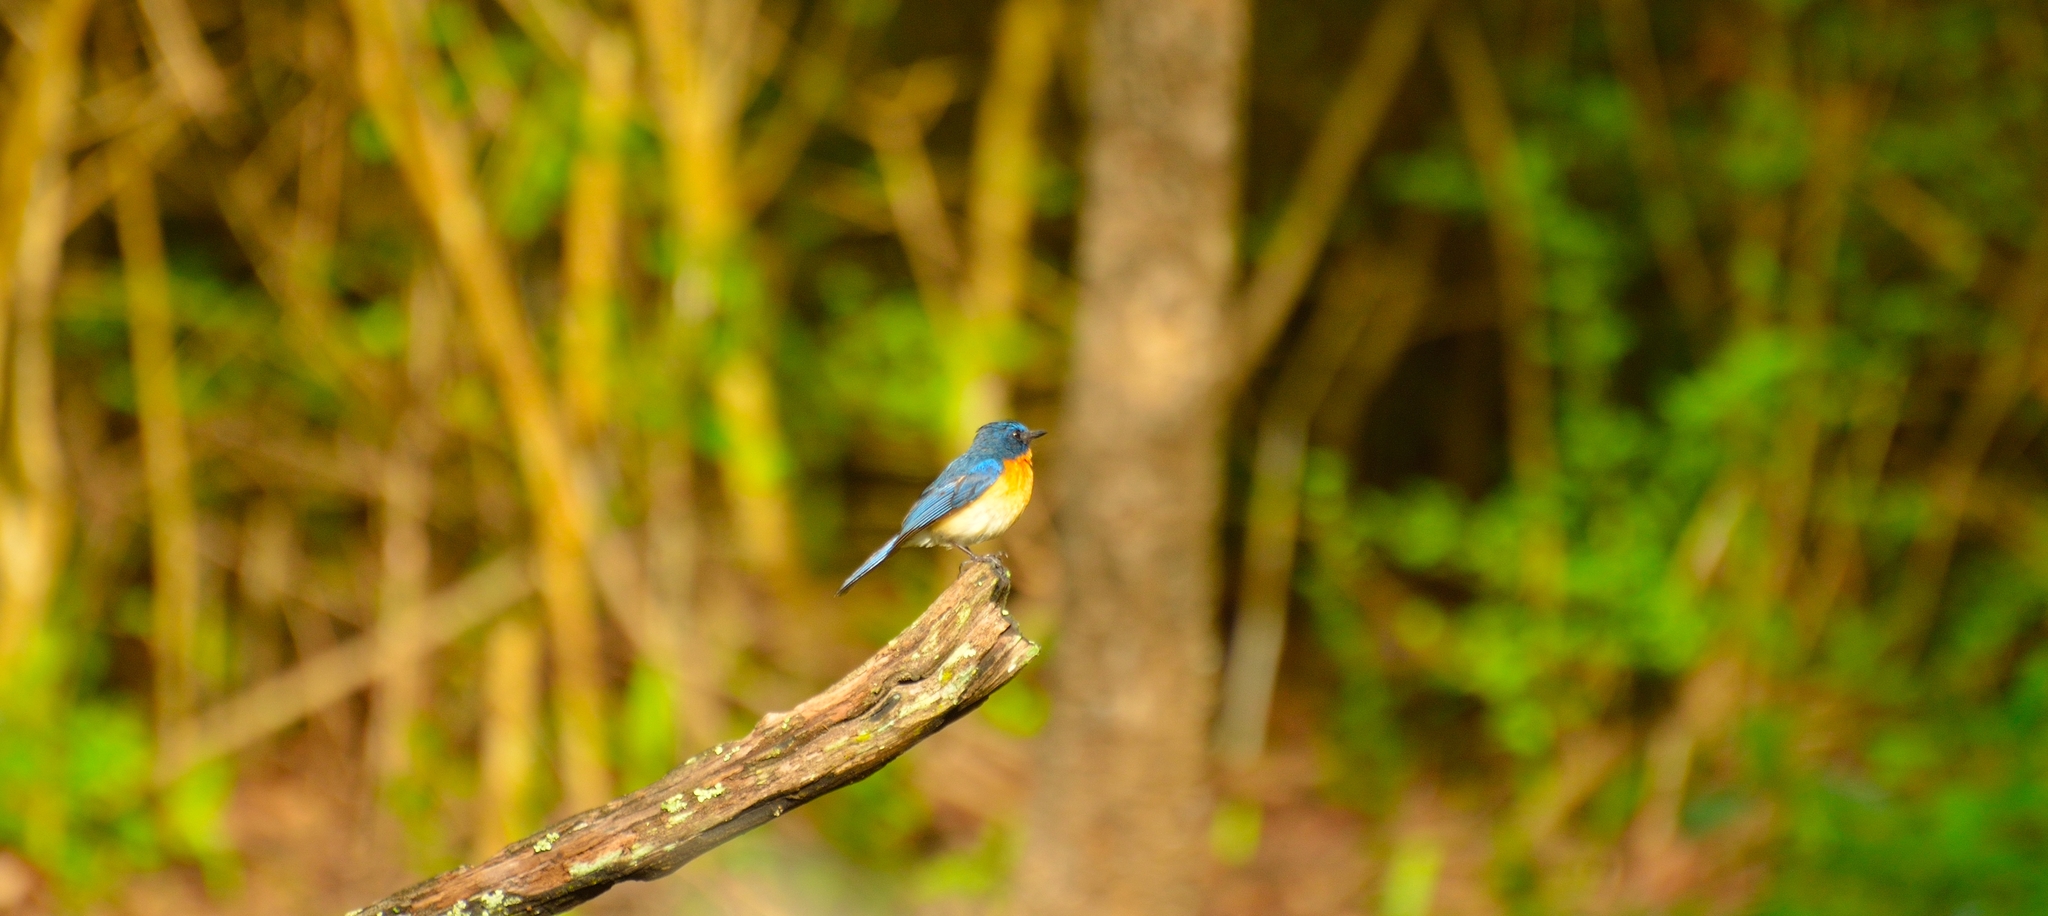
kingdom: Animalia
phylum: Chordata
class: Aves
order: Passeriformes
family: Muscicapidae
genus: Cyornis
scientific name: Cyornis tickelliae
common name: Tickell's blue flycatcher
